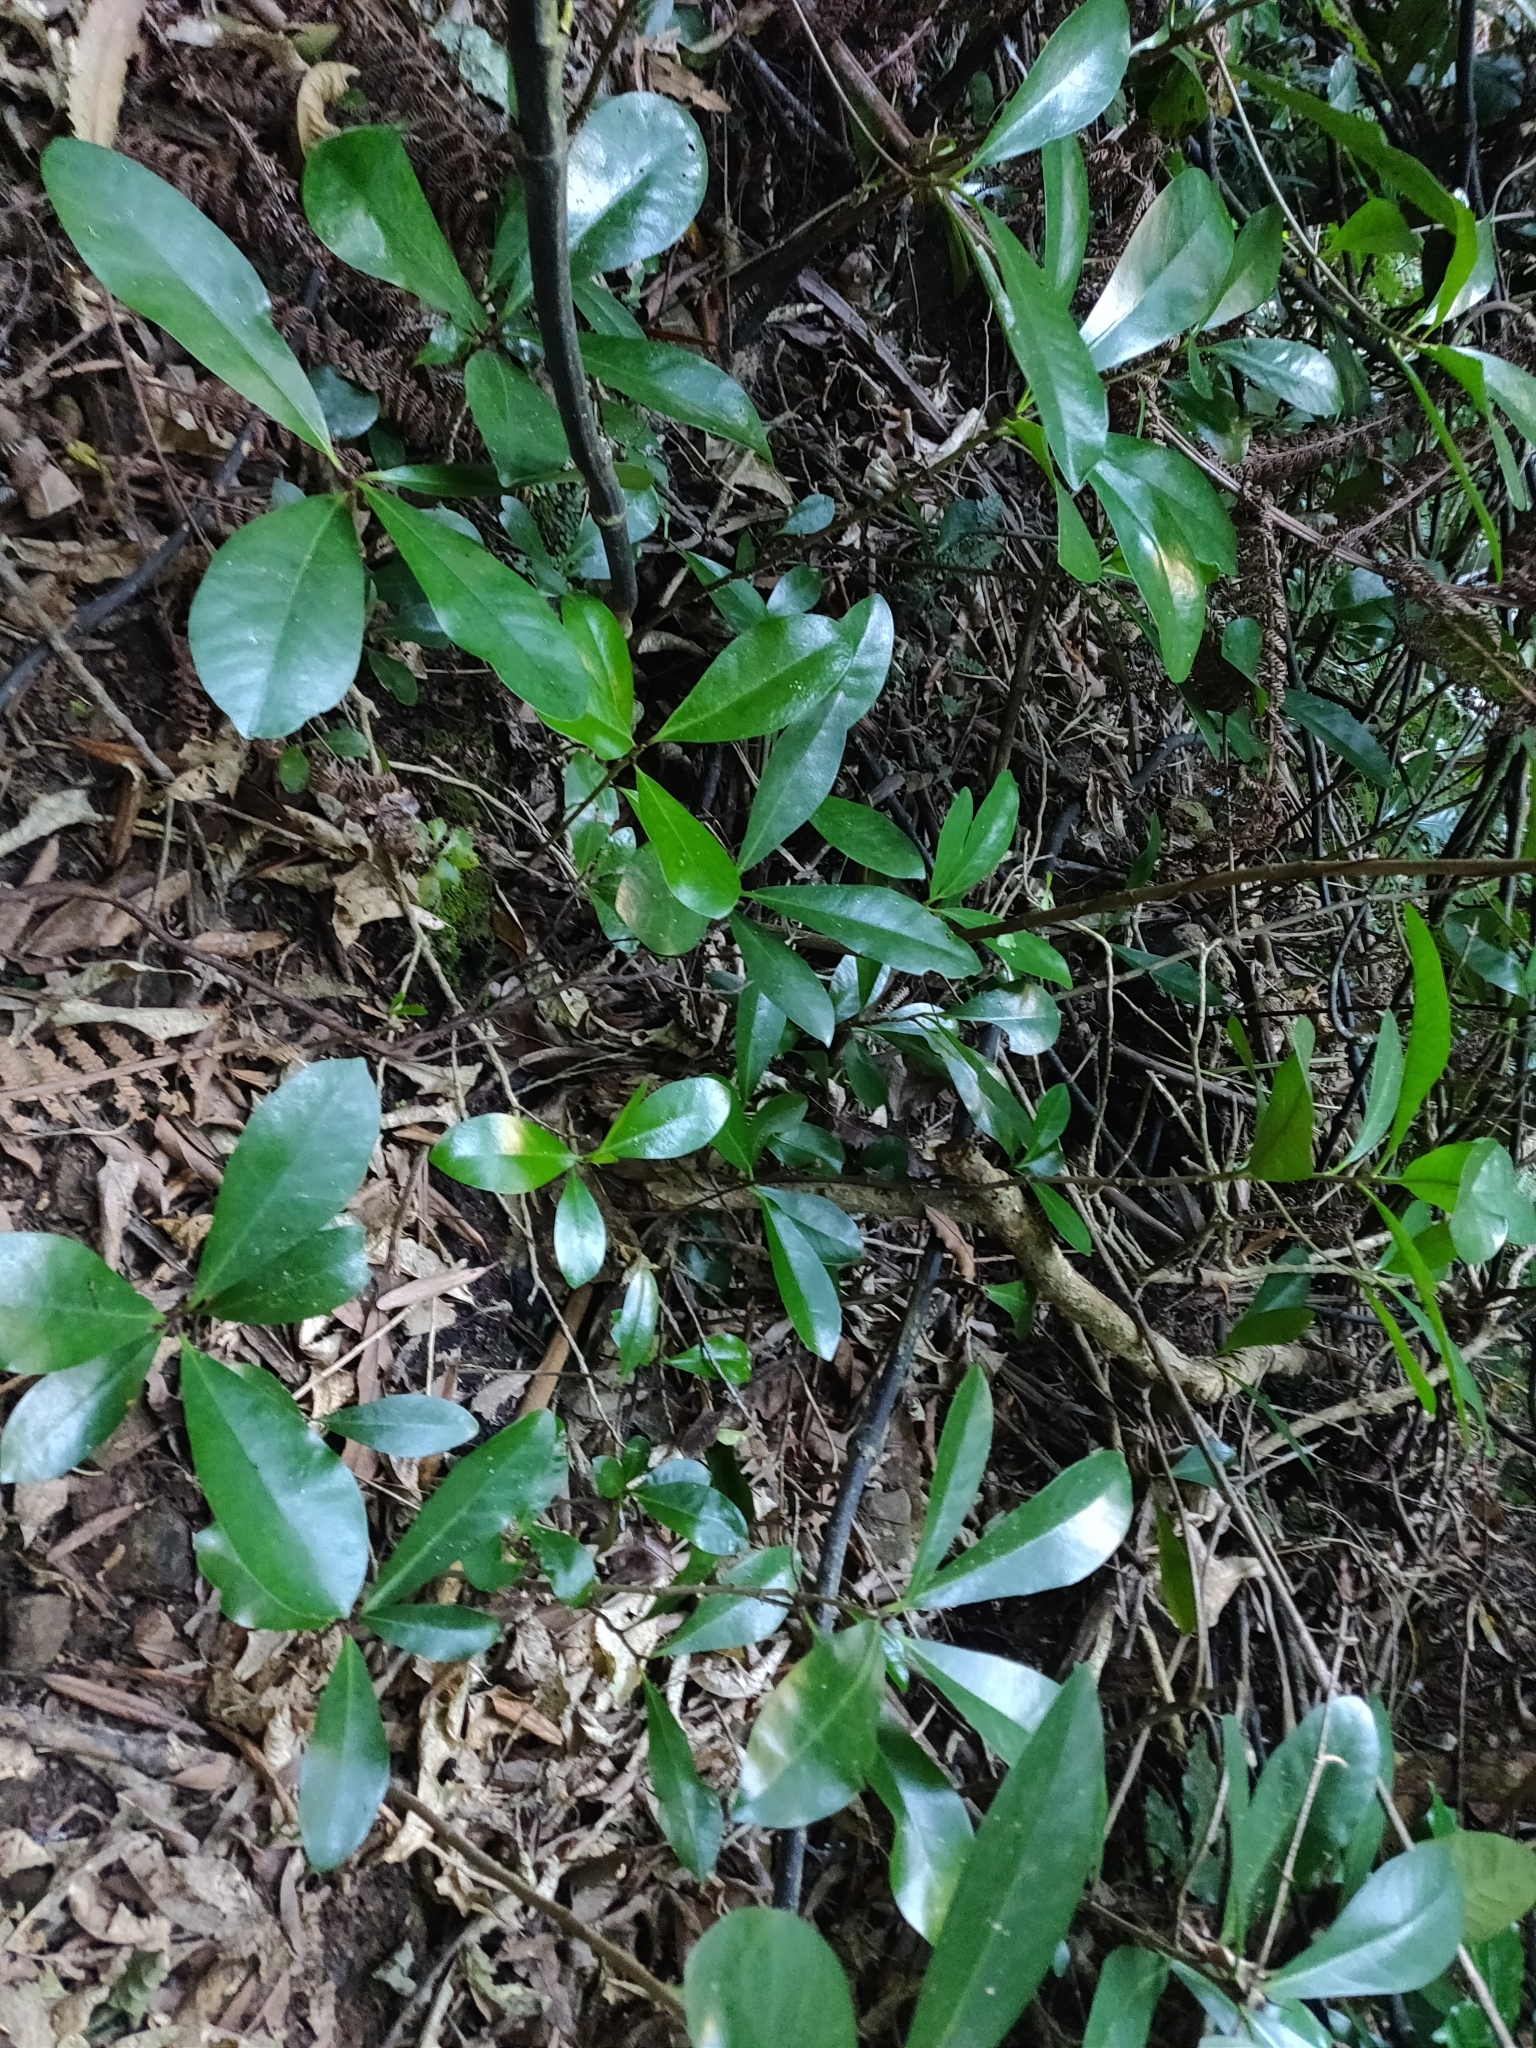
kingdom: Plantae
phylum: Tracheophyta
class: Magnoliopsida
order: Cucurbitales
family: Corynocarpaceae
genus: Corynocarpus
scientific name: Corynocarpus laevigatus
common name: New zealand laurel
